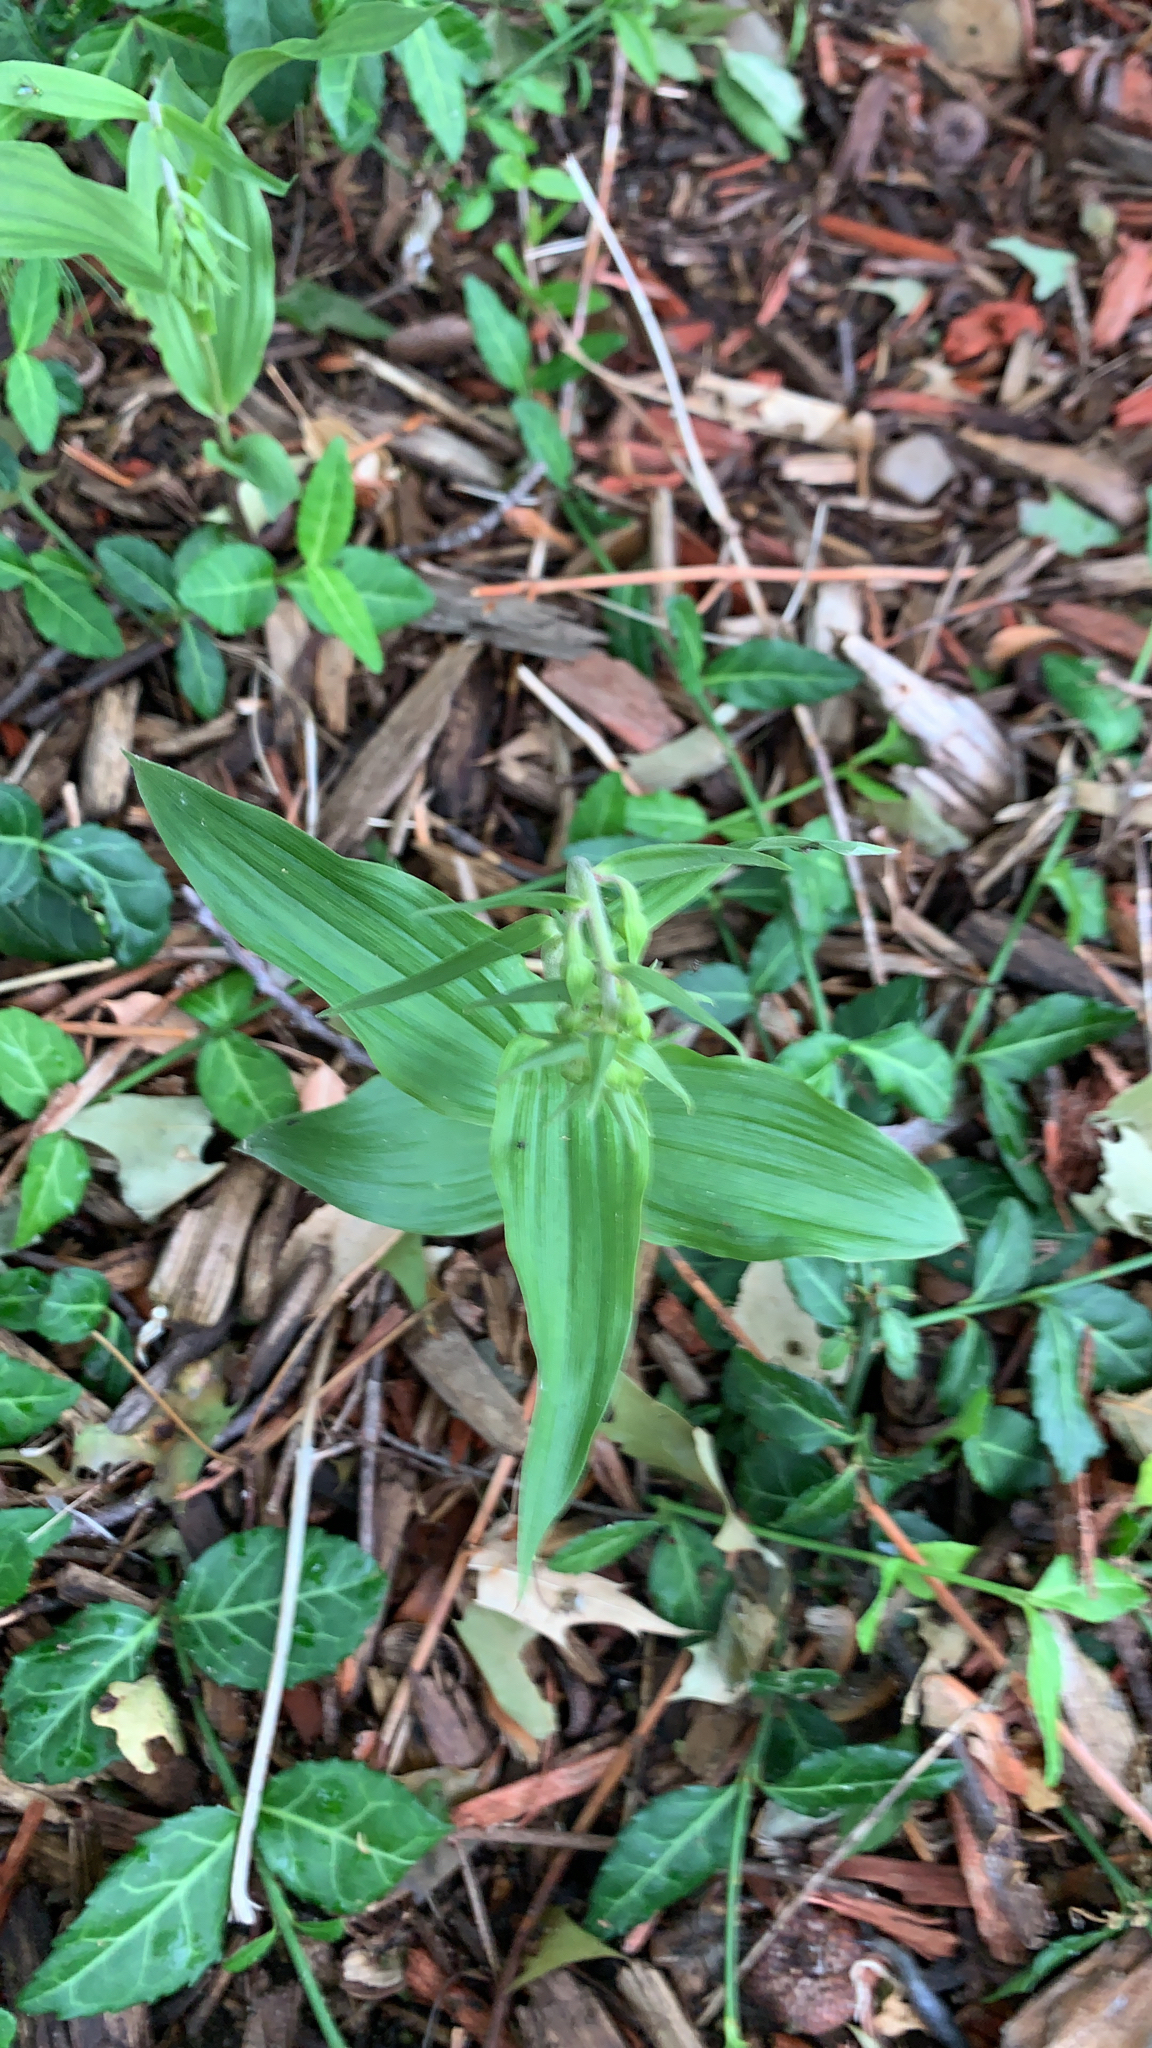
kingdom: Plantae
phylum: Tracheophyta
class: Liliopsida
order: Asparagales
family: Orchidaceae
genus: Epipactis
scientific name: Epipactis helleborine
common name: Broad-leaved helleborine
